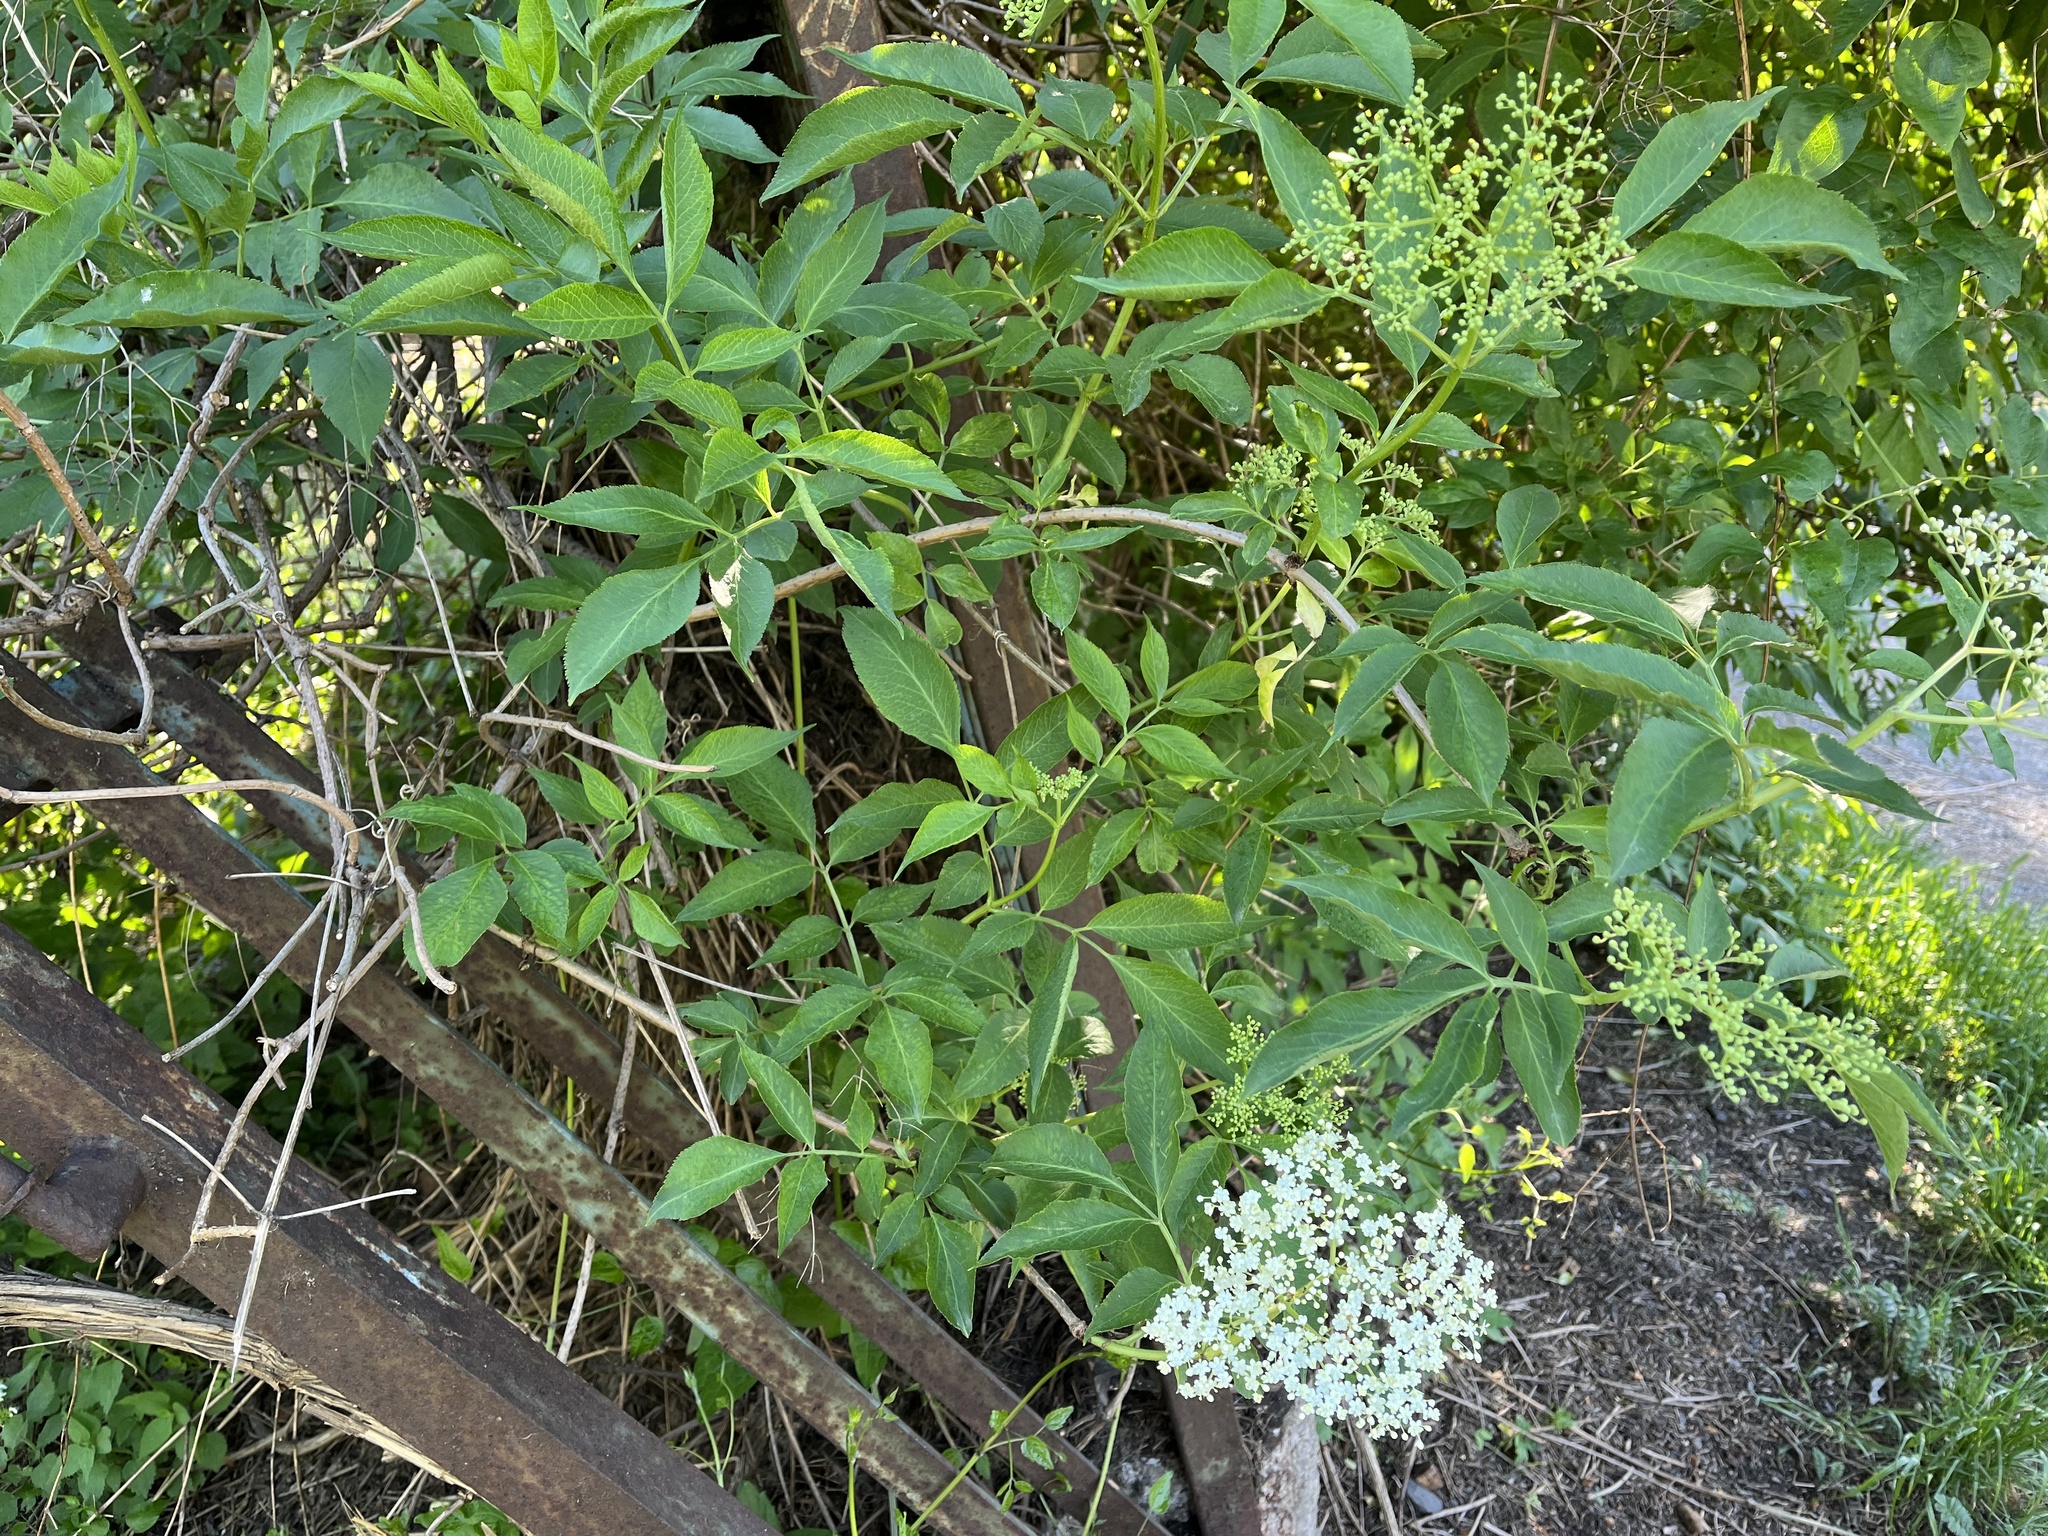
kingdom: Plantae
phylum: Tracheophyta
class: Magnoliopsida
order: Dipsacales
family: Viburnaceae
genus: Sambucus
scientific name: Sambucus nigra
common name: Elder
